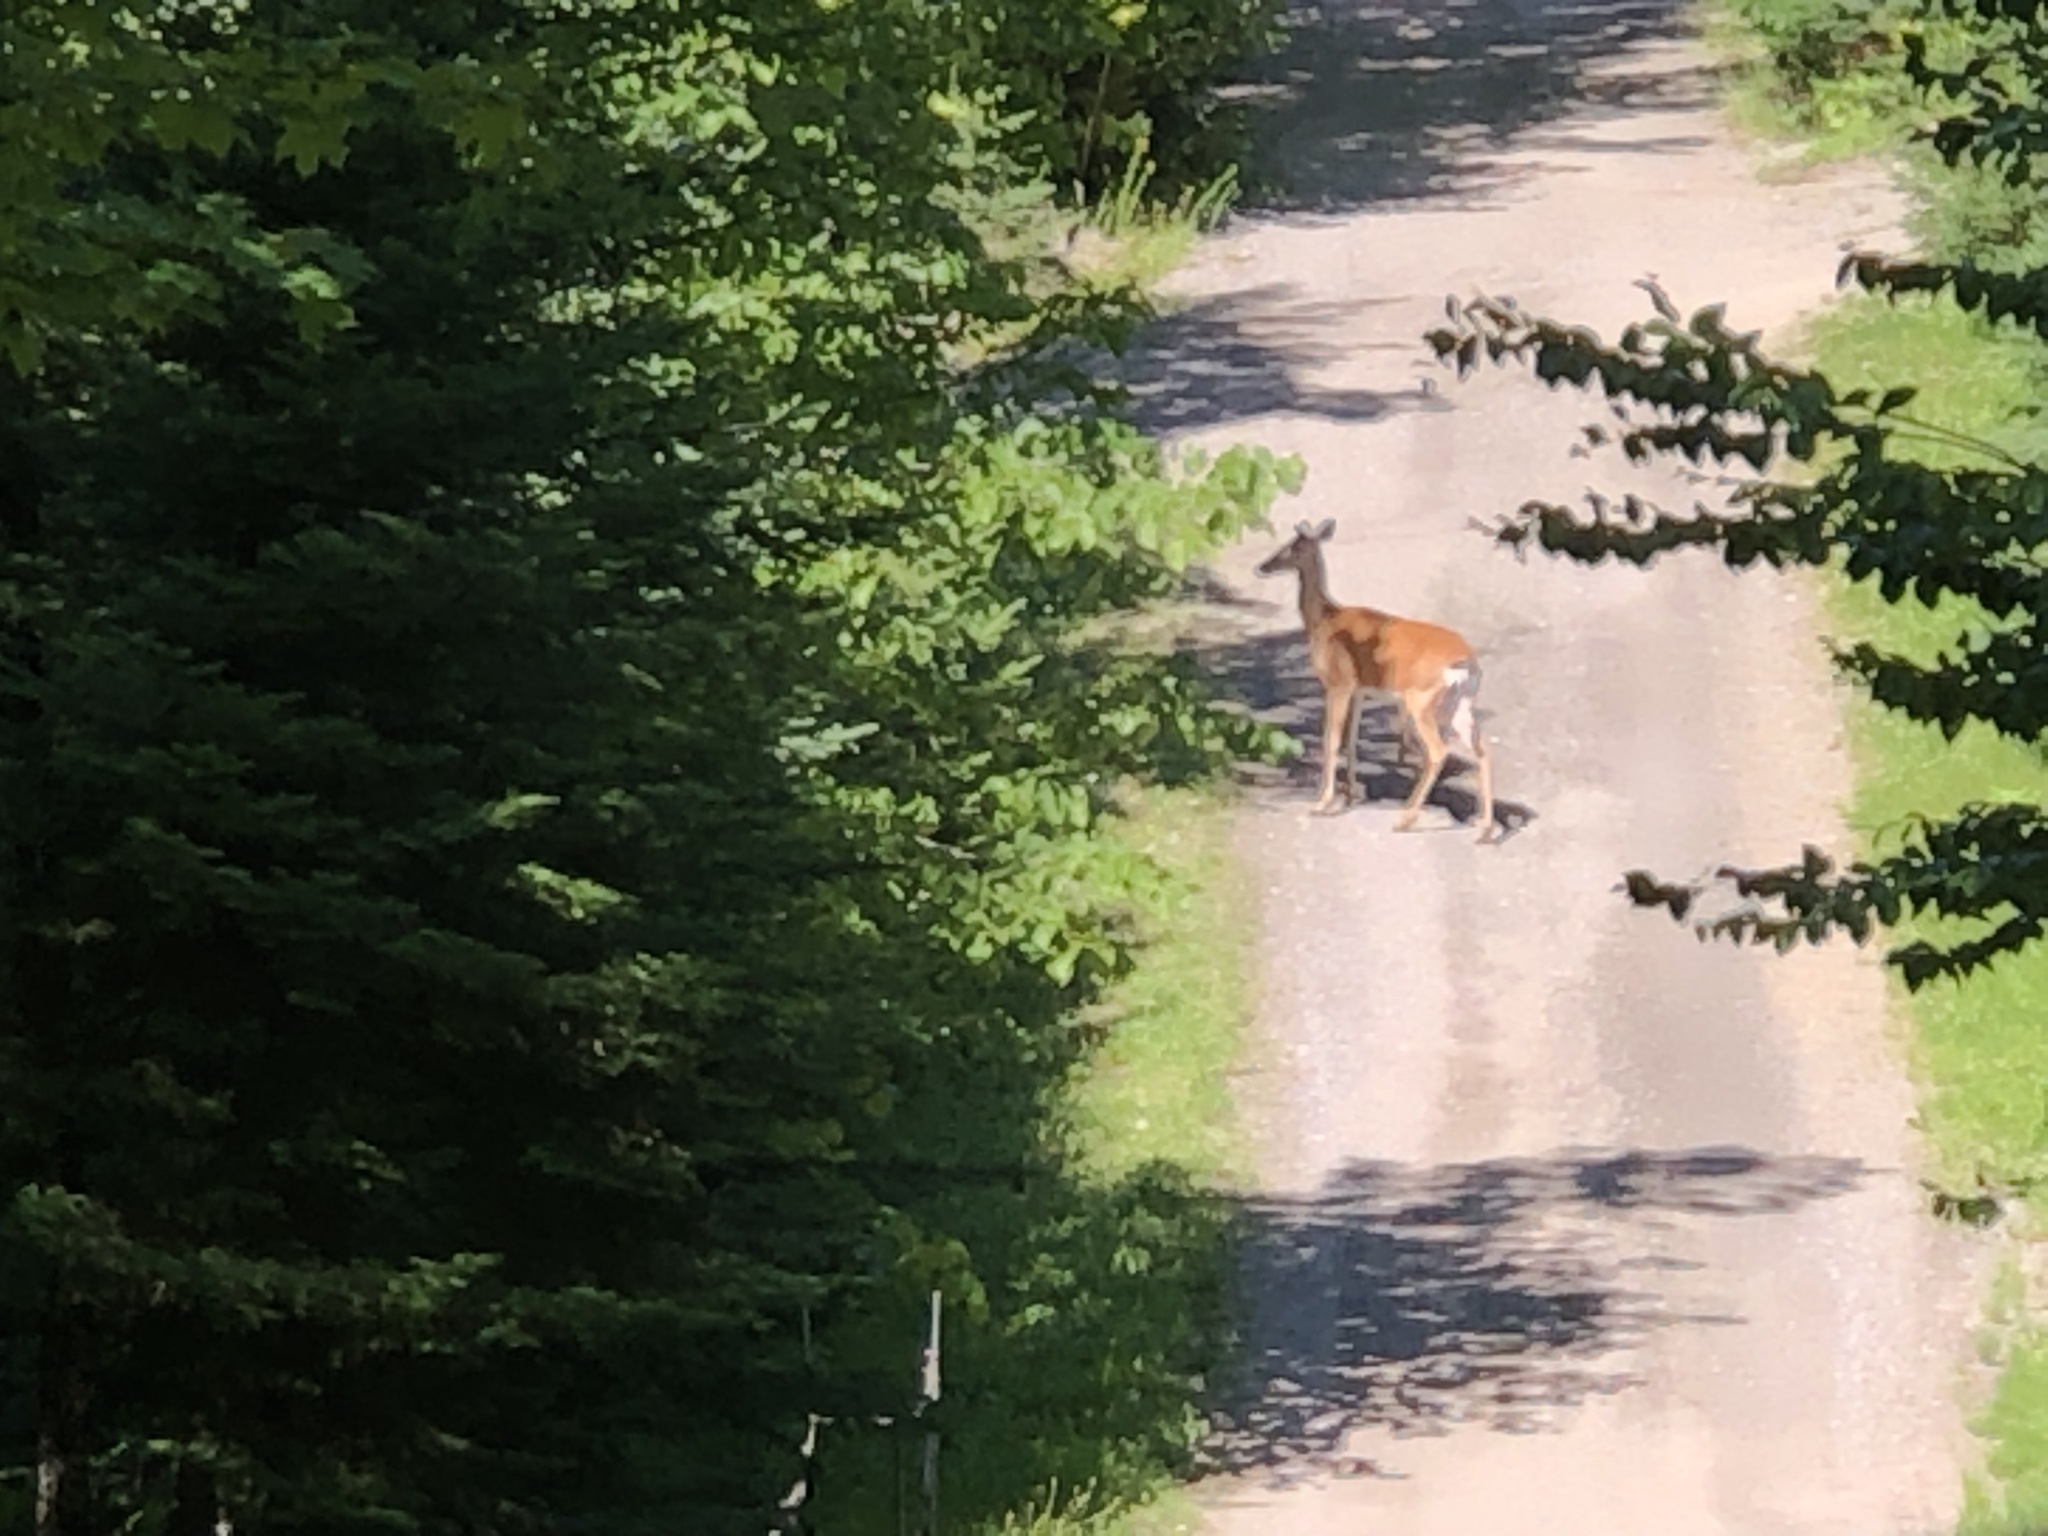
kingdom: Animalia
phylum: Chordata
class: Mammalia
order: Artiodactyla
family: Cervidae
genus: Odocoileus
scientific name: Odocoileus virginianus
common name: White-tailed deer
